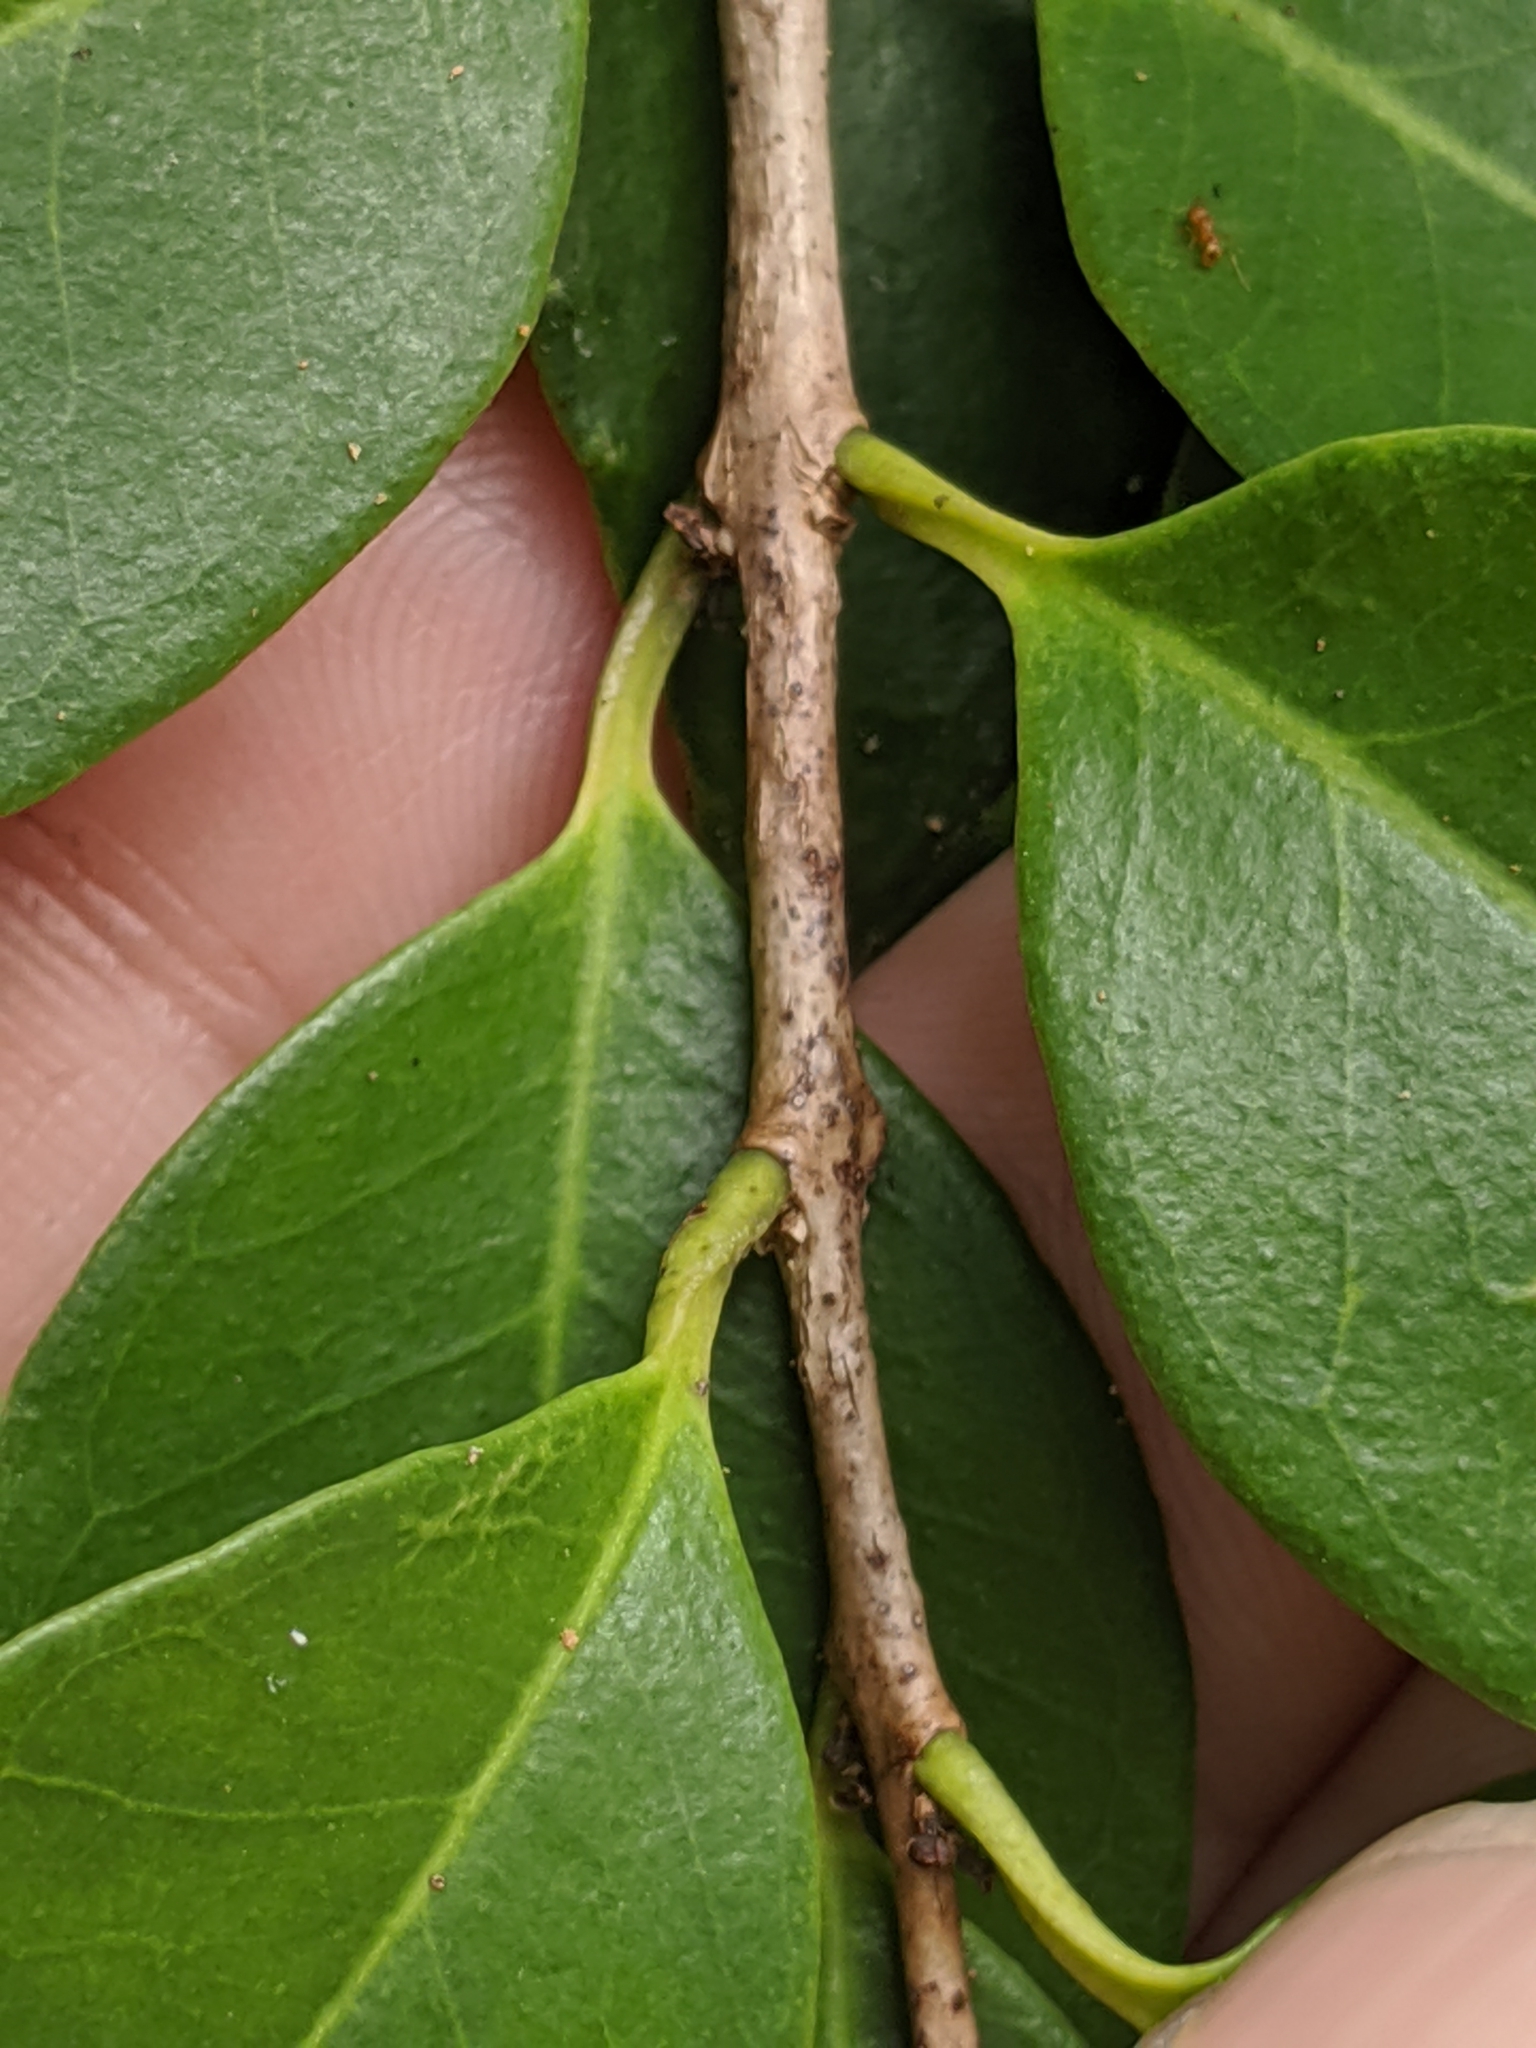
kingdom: Plantae
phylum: Tracheophyta
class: Magnoliopsida
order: Myrtales
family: Myrtaceae
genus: Eugenia
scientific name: Eugenia axillaris
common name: Choaky berry
